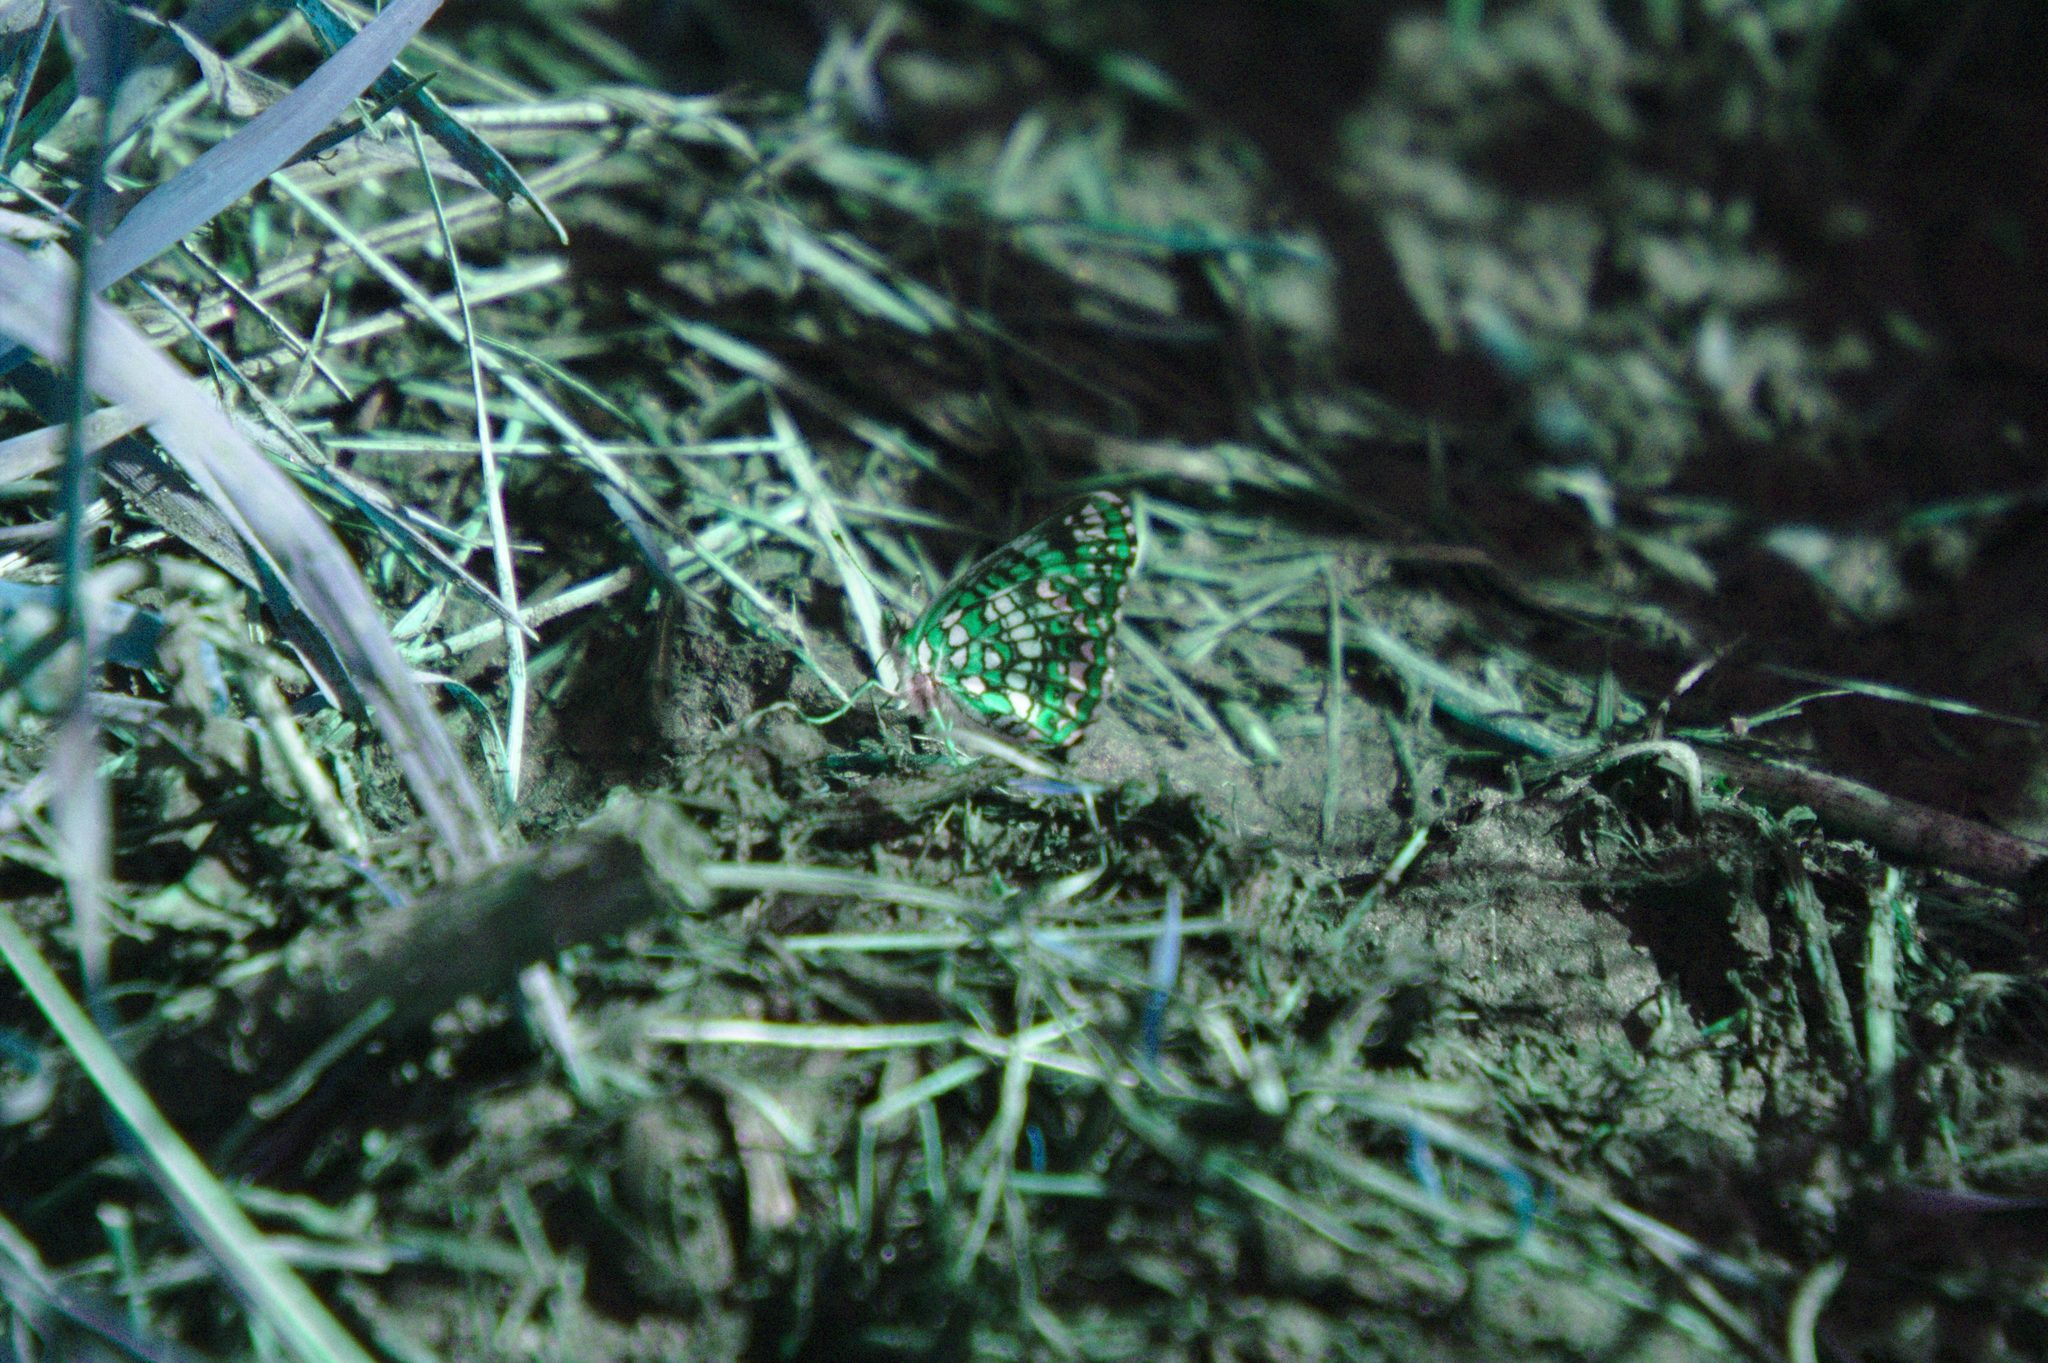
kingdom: Animalia
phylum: Arthropoda
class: Insecta
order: Lepidoptera
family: Nymphalidae
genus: Chlosyne
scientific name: Chlosyne harrisii
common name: Harris's checkerspot
